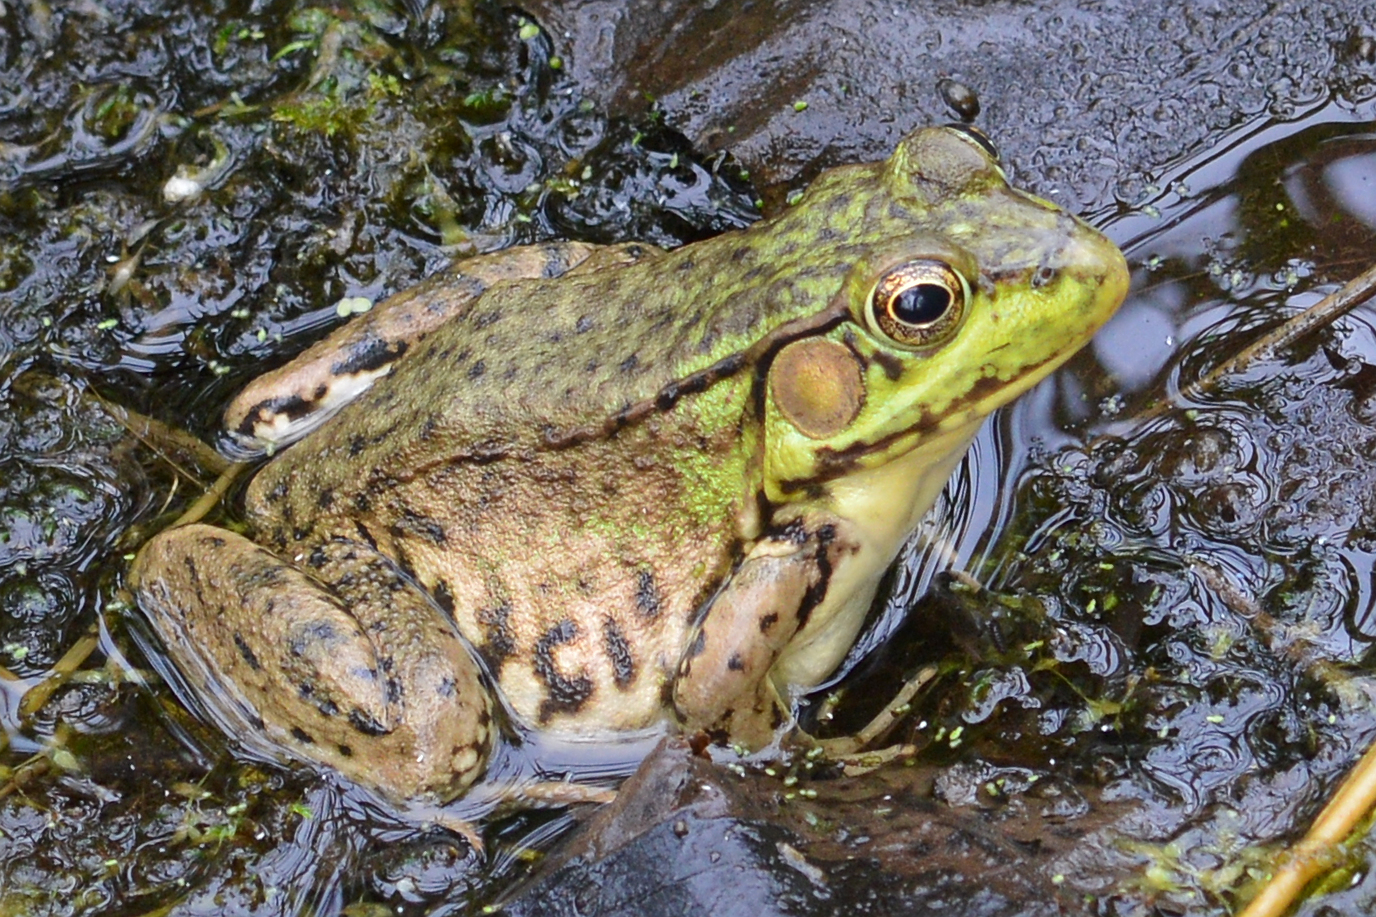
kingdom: Animalia
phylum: Chordata
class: Amphibia
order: Anura
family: Ranidae
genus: Lithobates
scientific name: Lithobates clamitans
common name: Green frog
